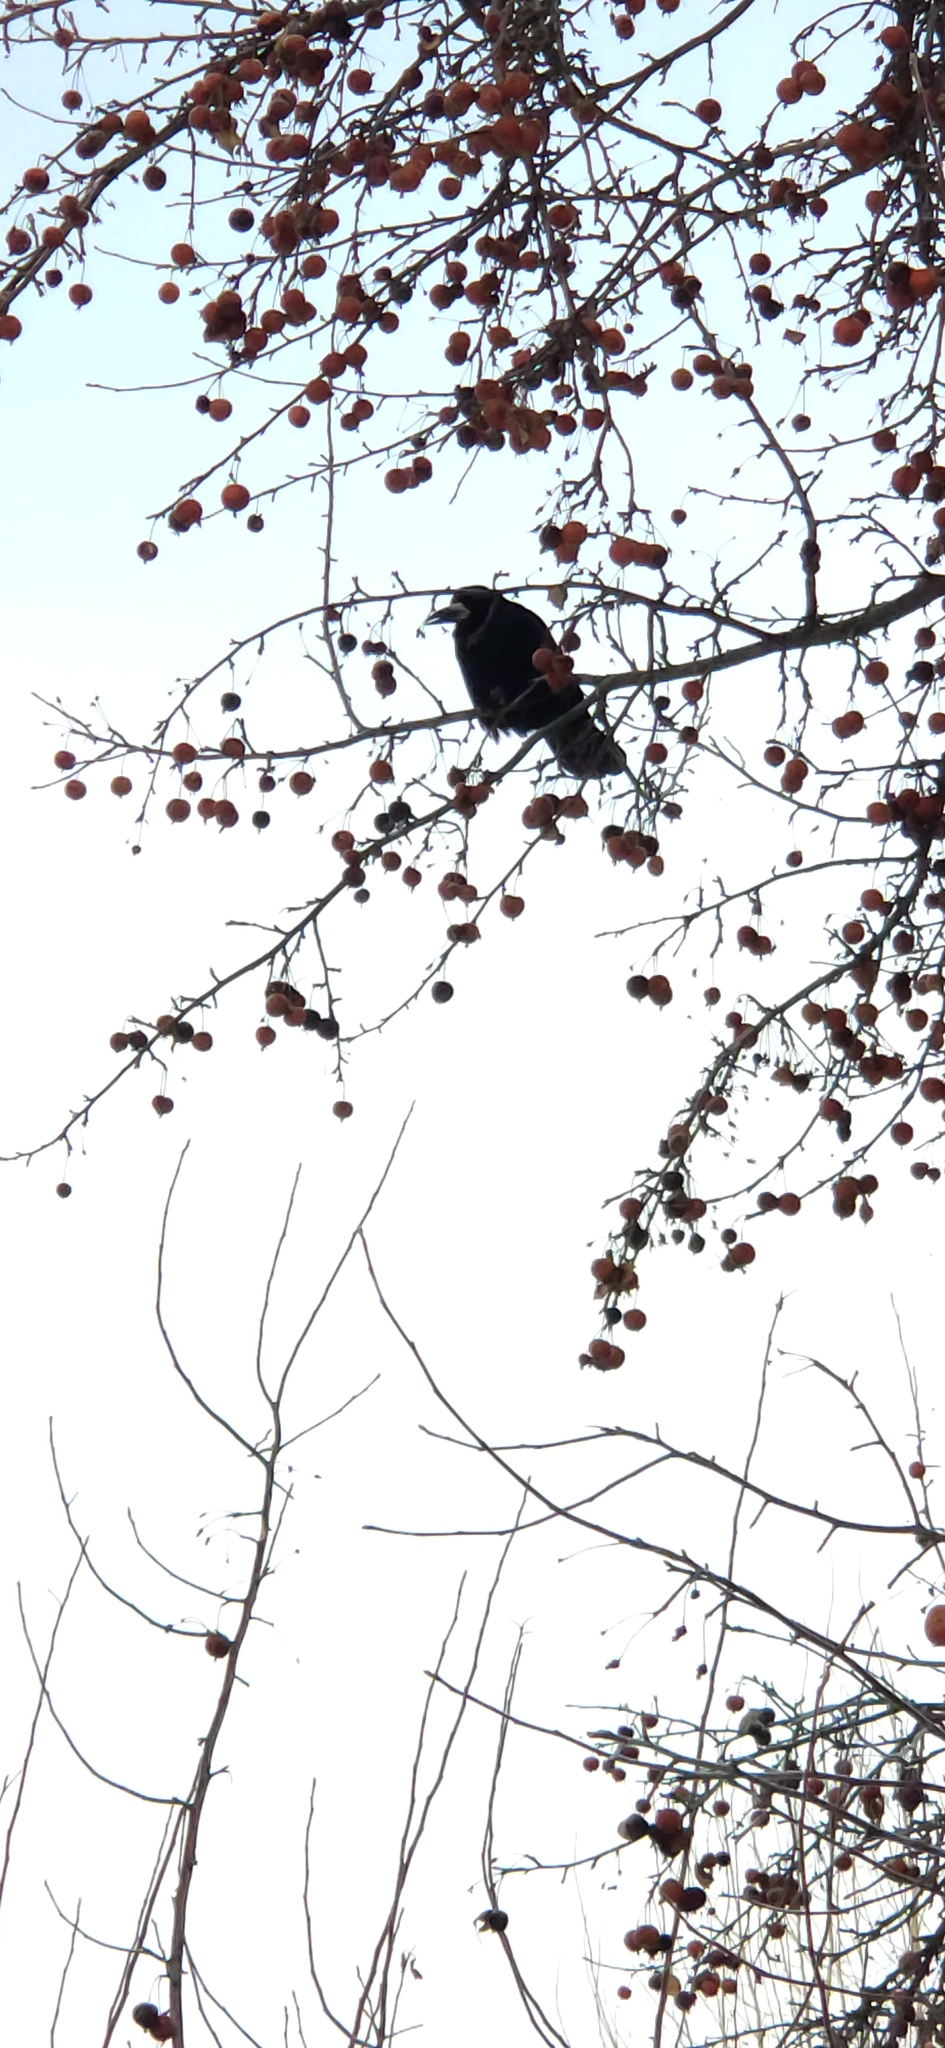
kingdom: Animalia
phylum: Chordata
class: Aves
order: Passeriformes
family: Corvidae
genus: Corvus
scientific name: Corvus frugilegus
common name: Rook
